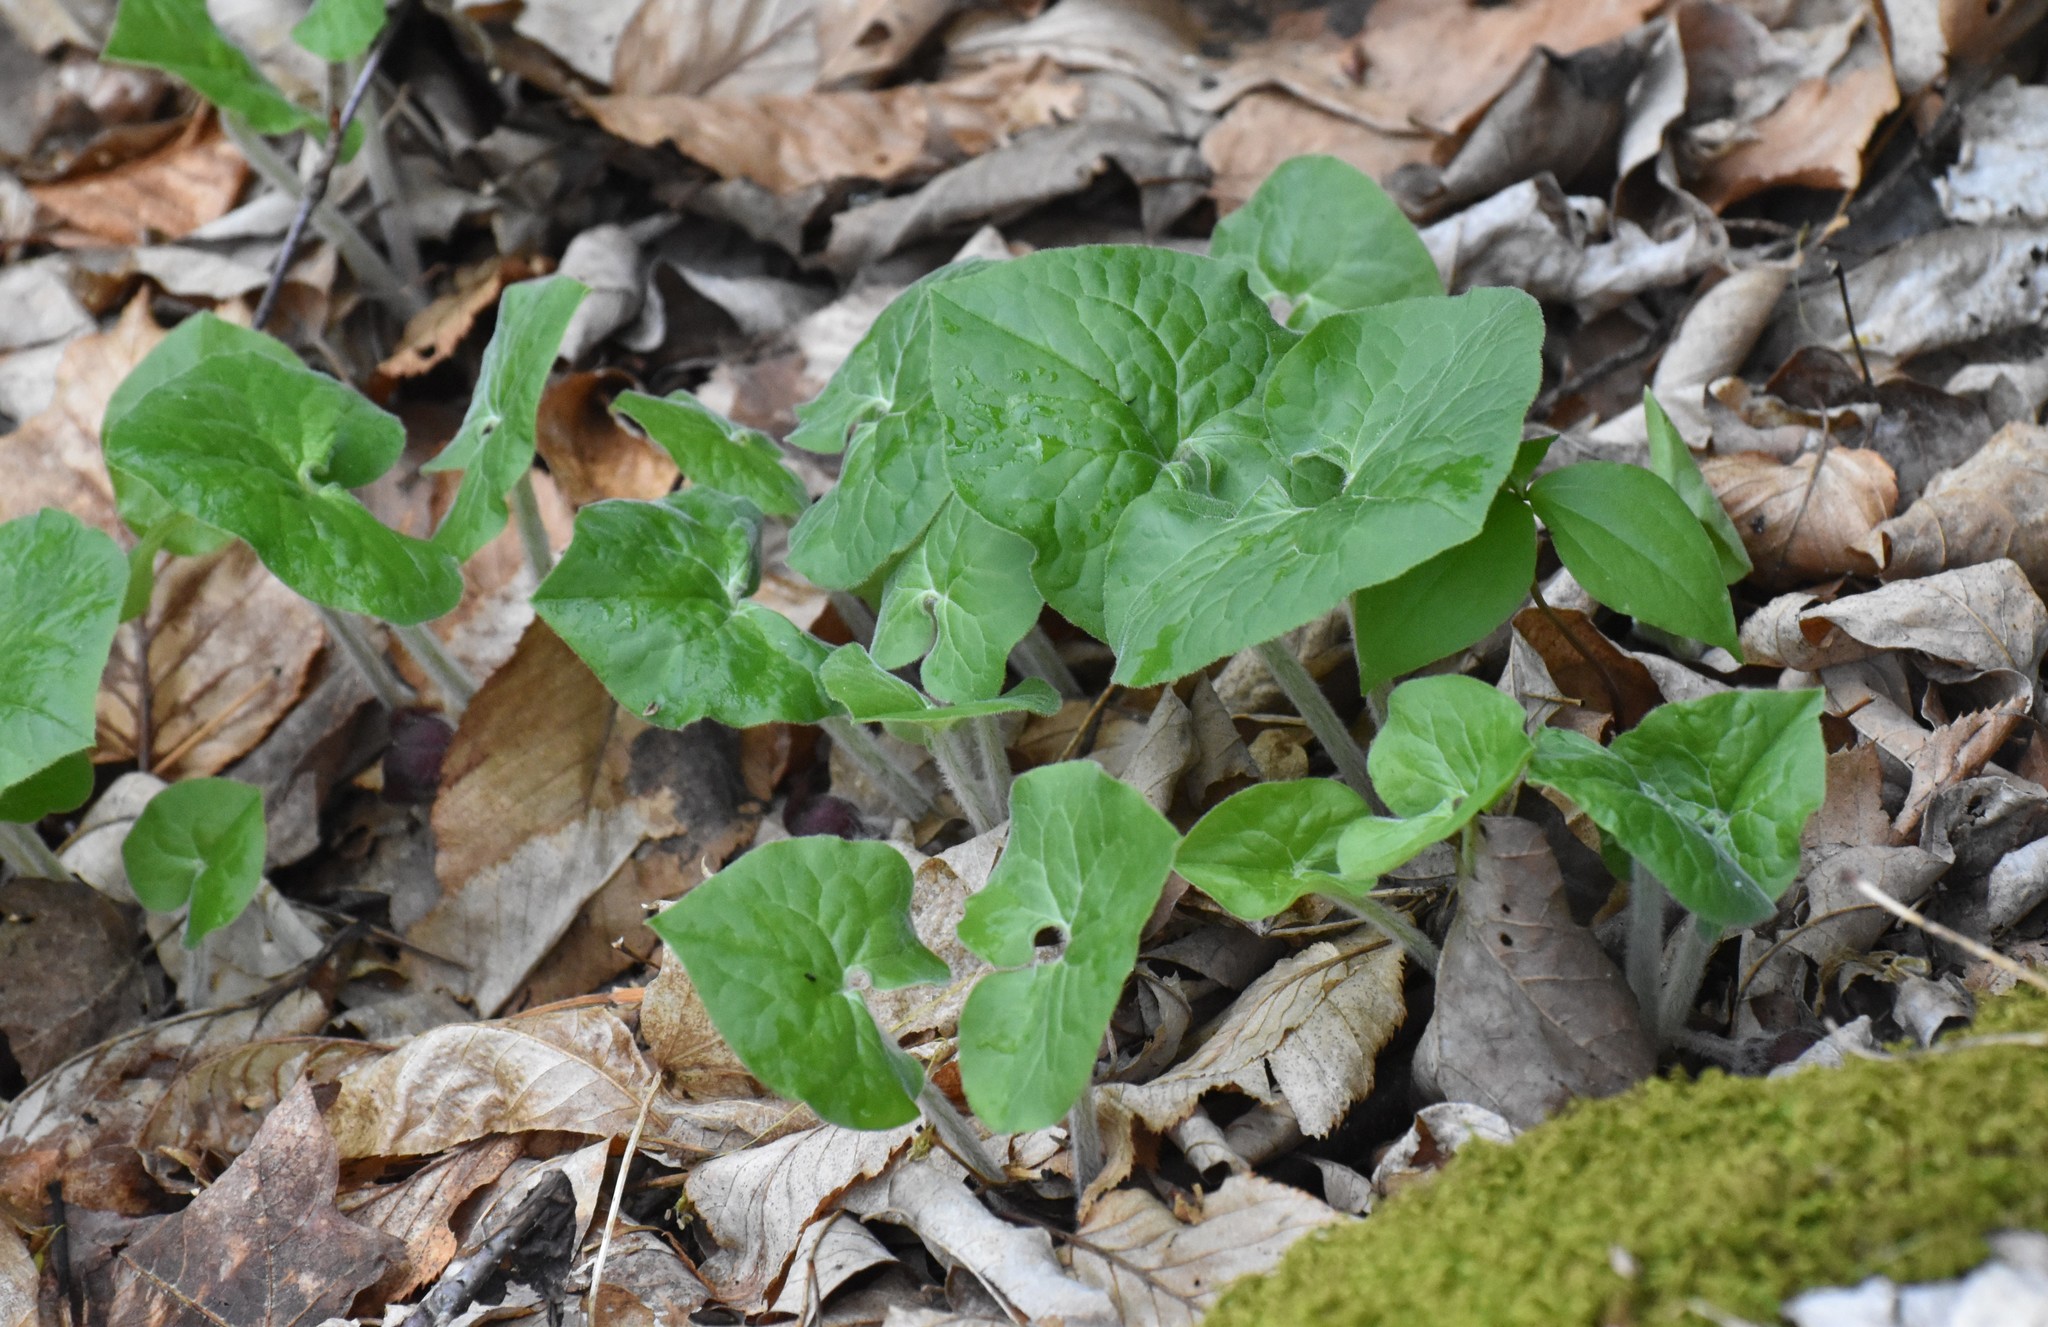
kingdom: Plantae
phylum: Tracheophyta
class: Magnoliopsida
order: Piperales
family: Aristolochiaceae
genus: Asarum
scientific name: Asarum canadense
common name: Wild ginger
